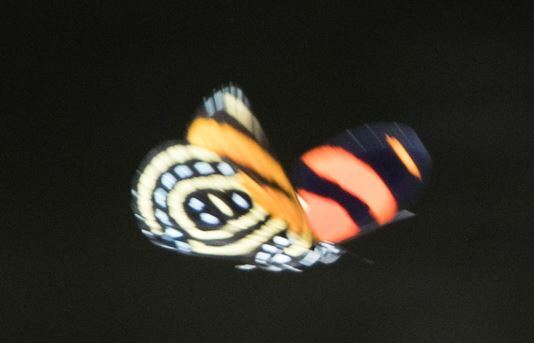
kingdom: Animalia
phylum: Arthropoda
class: Insecta
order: Lepidoptera
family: Nymphalidae
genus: Catagramma
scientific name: Catagramma cynosura
